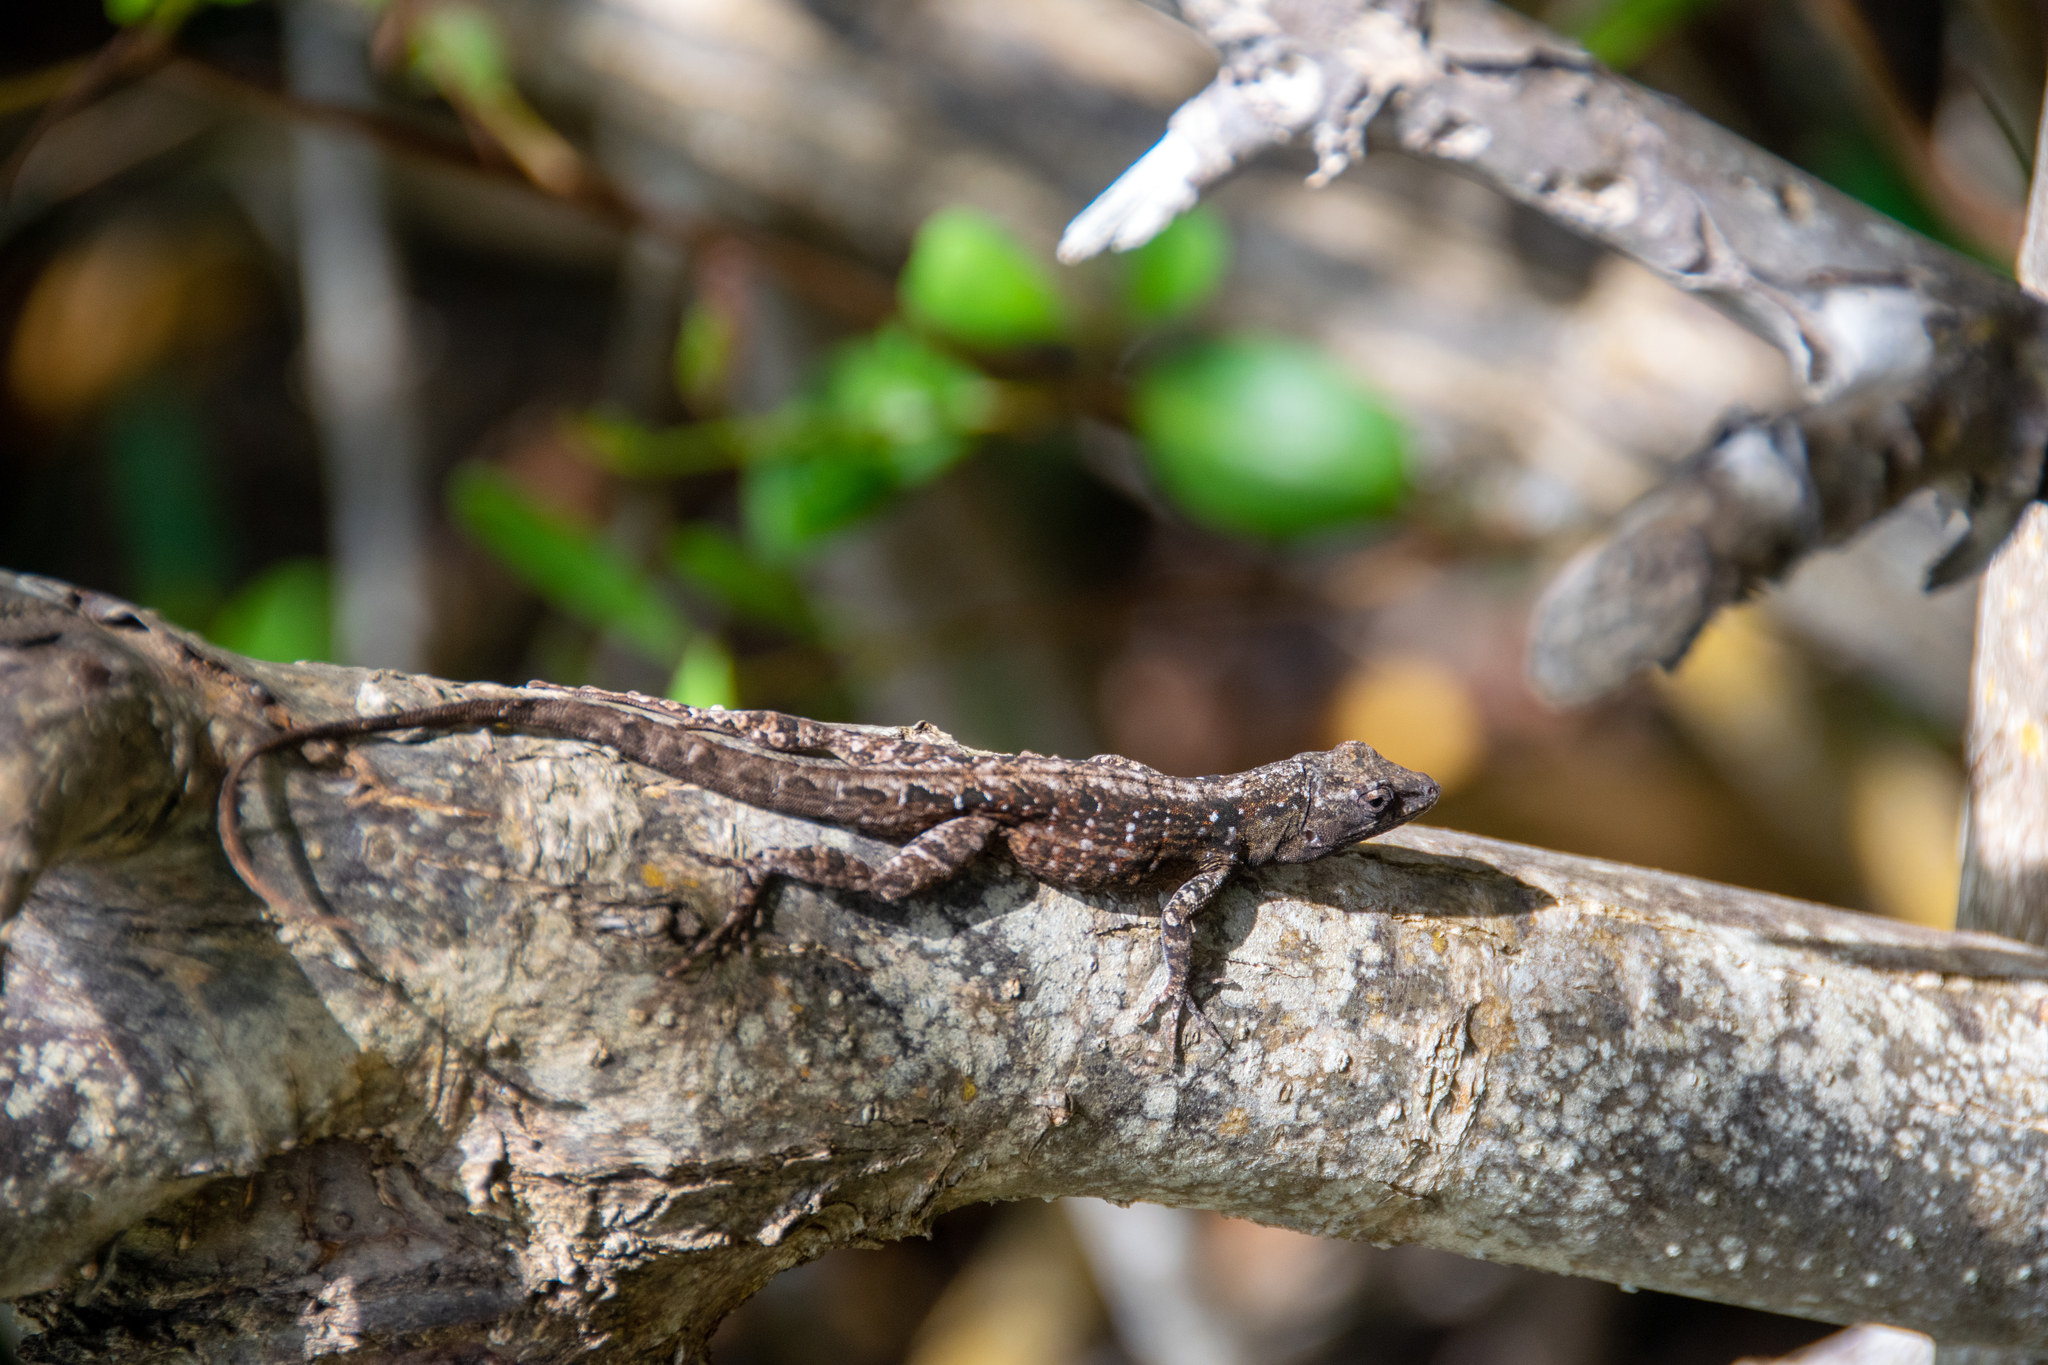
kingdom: Animalia
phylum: Chordata
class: Squamata
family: Dactyloidae
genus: Anolis
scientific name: Anolis sagrei
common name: Brown anole
